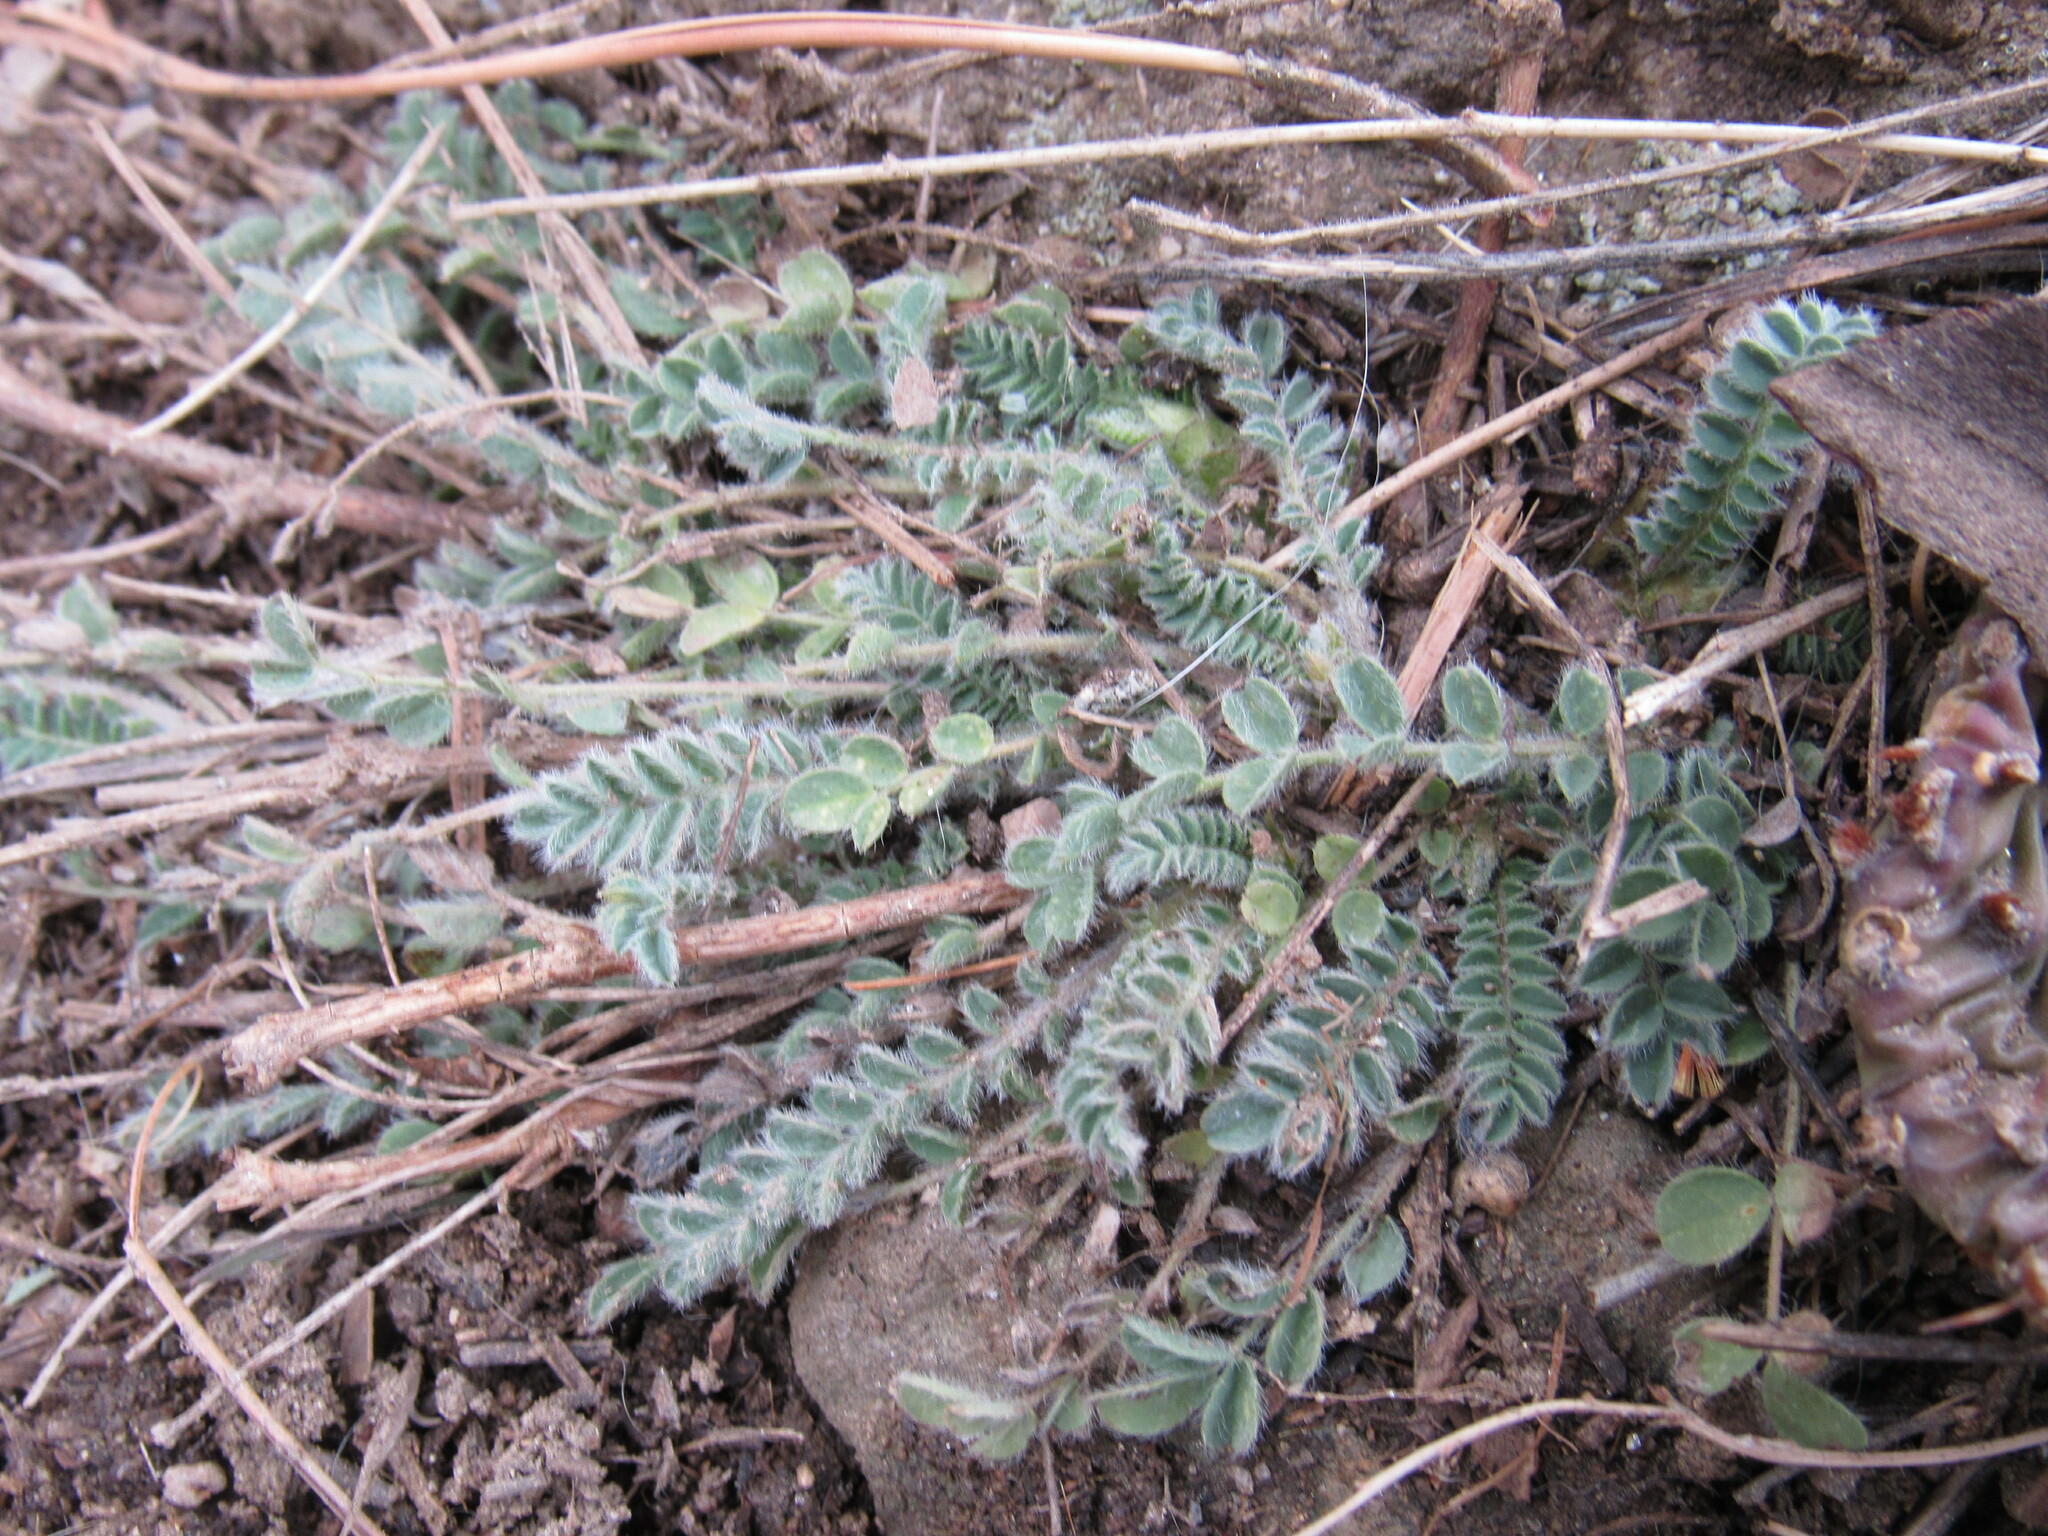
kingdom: Plantae
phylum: Tracheophyta
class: Magnoliopsida
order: Fabales
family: Fabaceae
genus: Astragalus
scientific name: Astragalus parryi
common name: Parry milk-vetch
